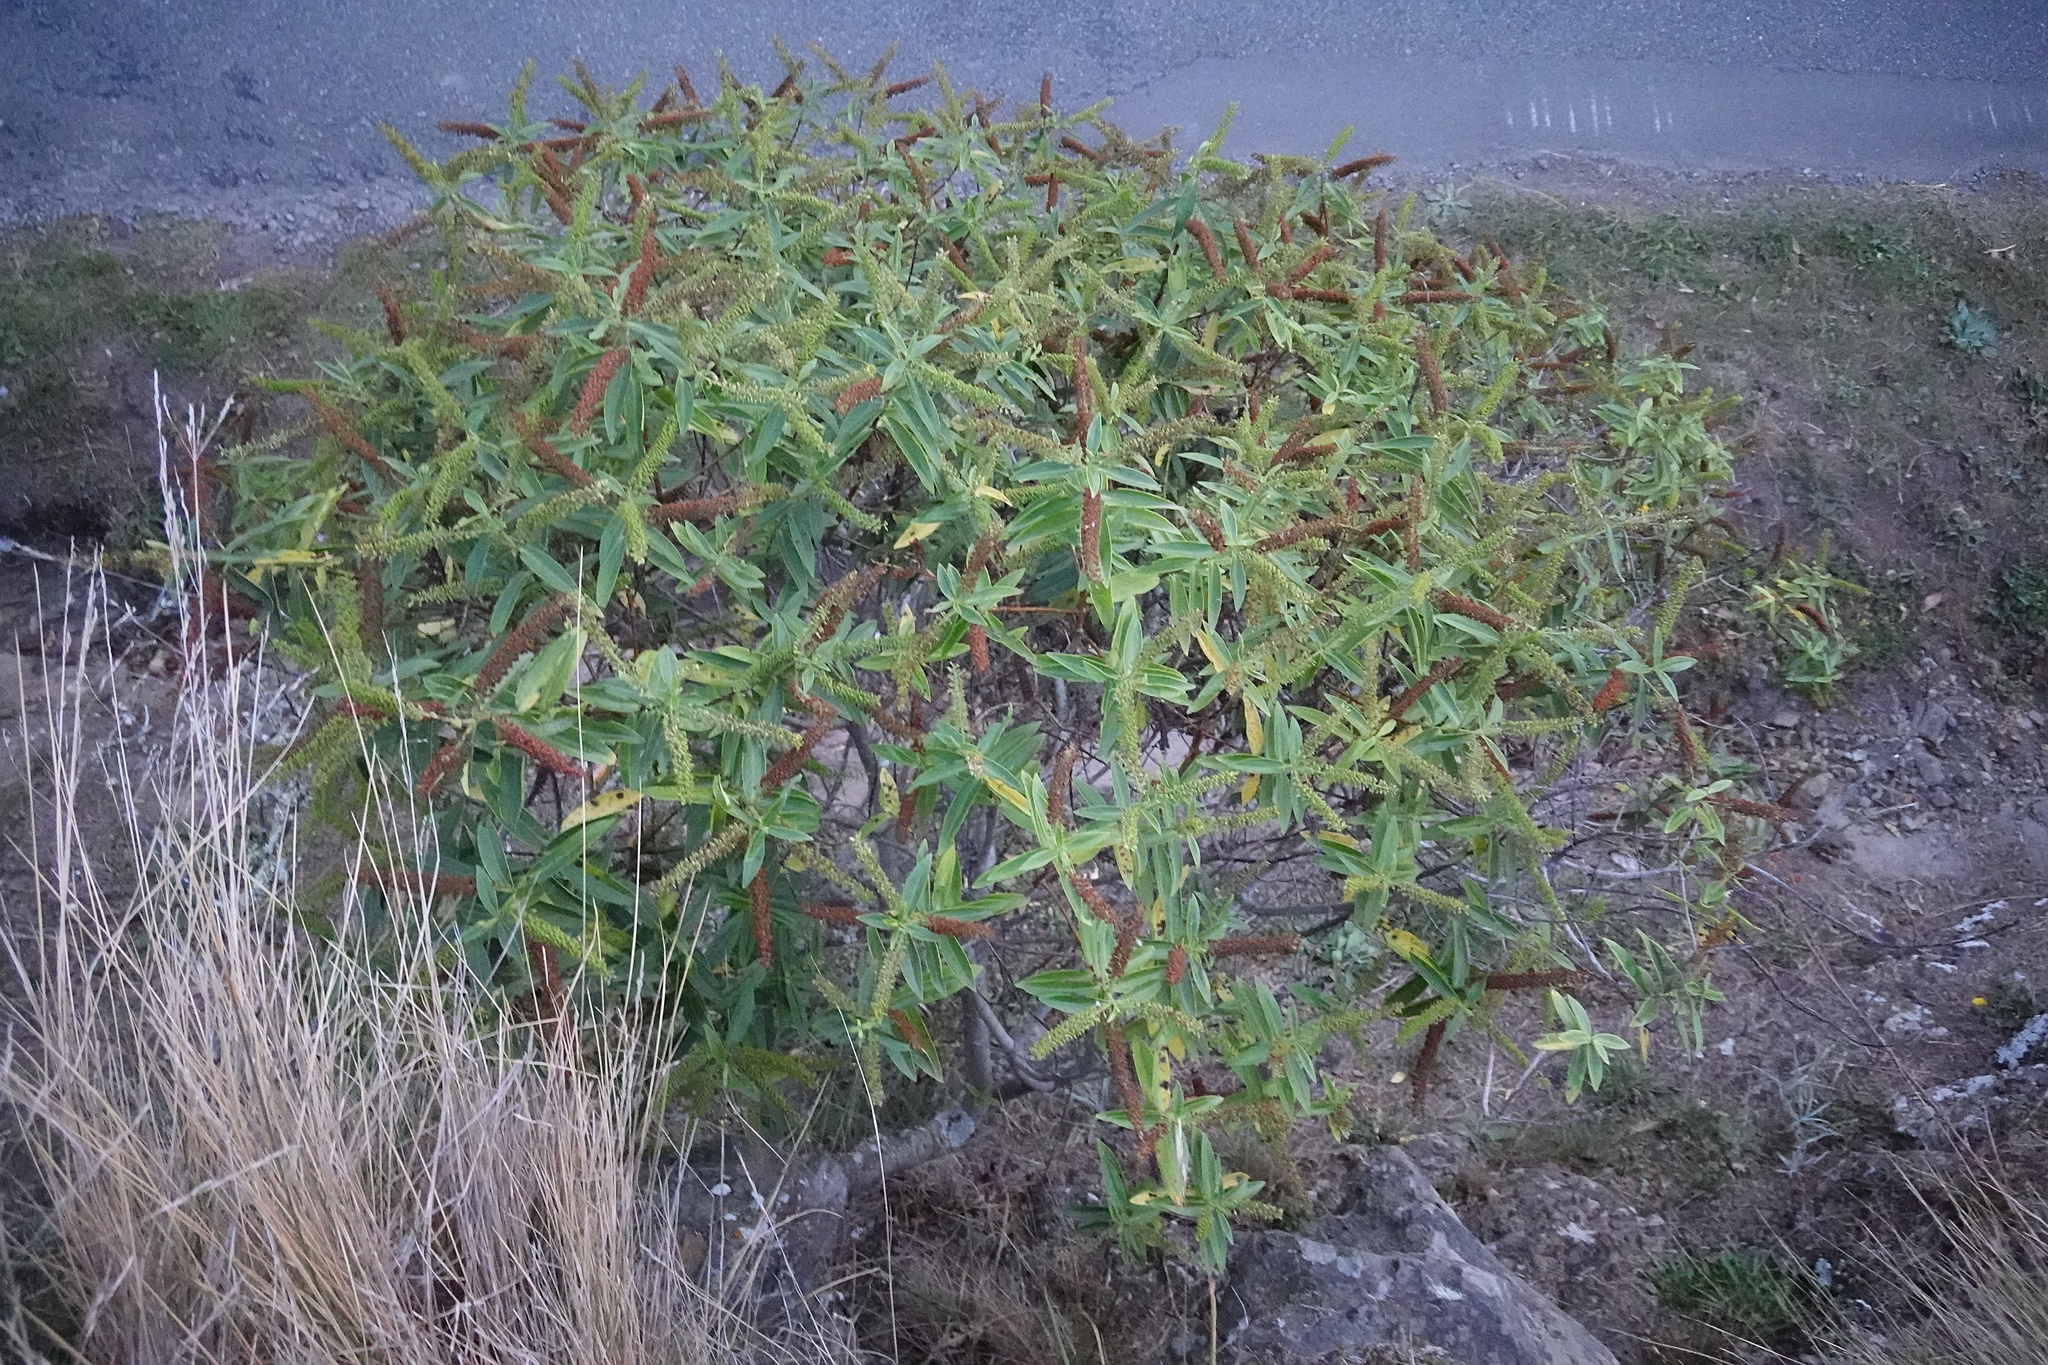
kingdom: Plantae
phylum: Tracheophyta
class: Magnoliopsida
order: Lamiales
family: Plantaginaceae
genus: Veronica
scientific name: Veronica salicifolia
